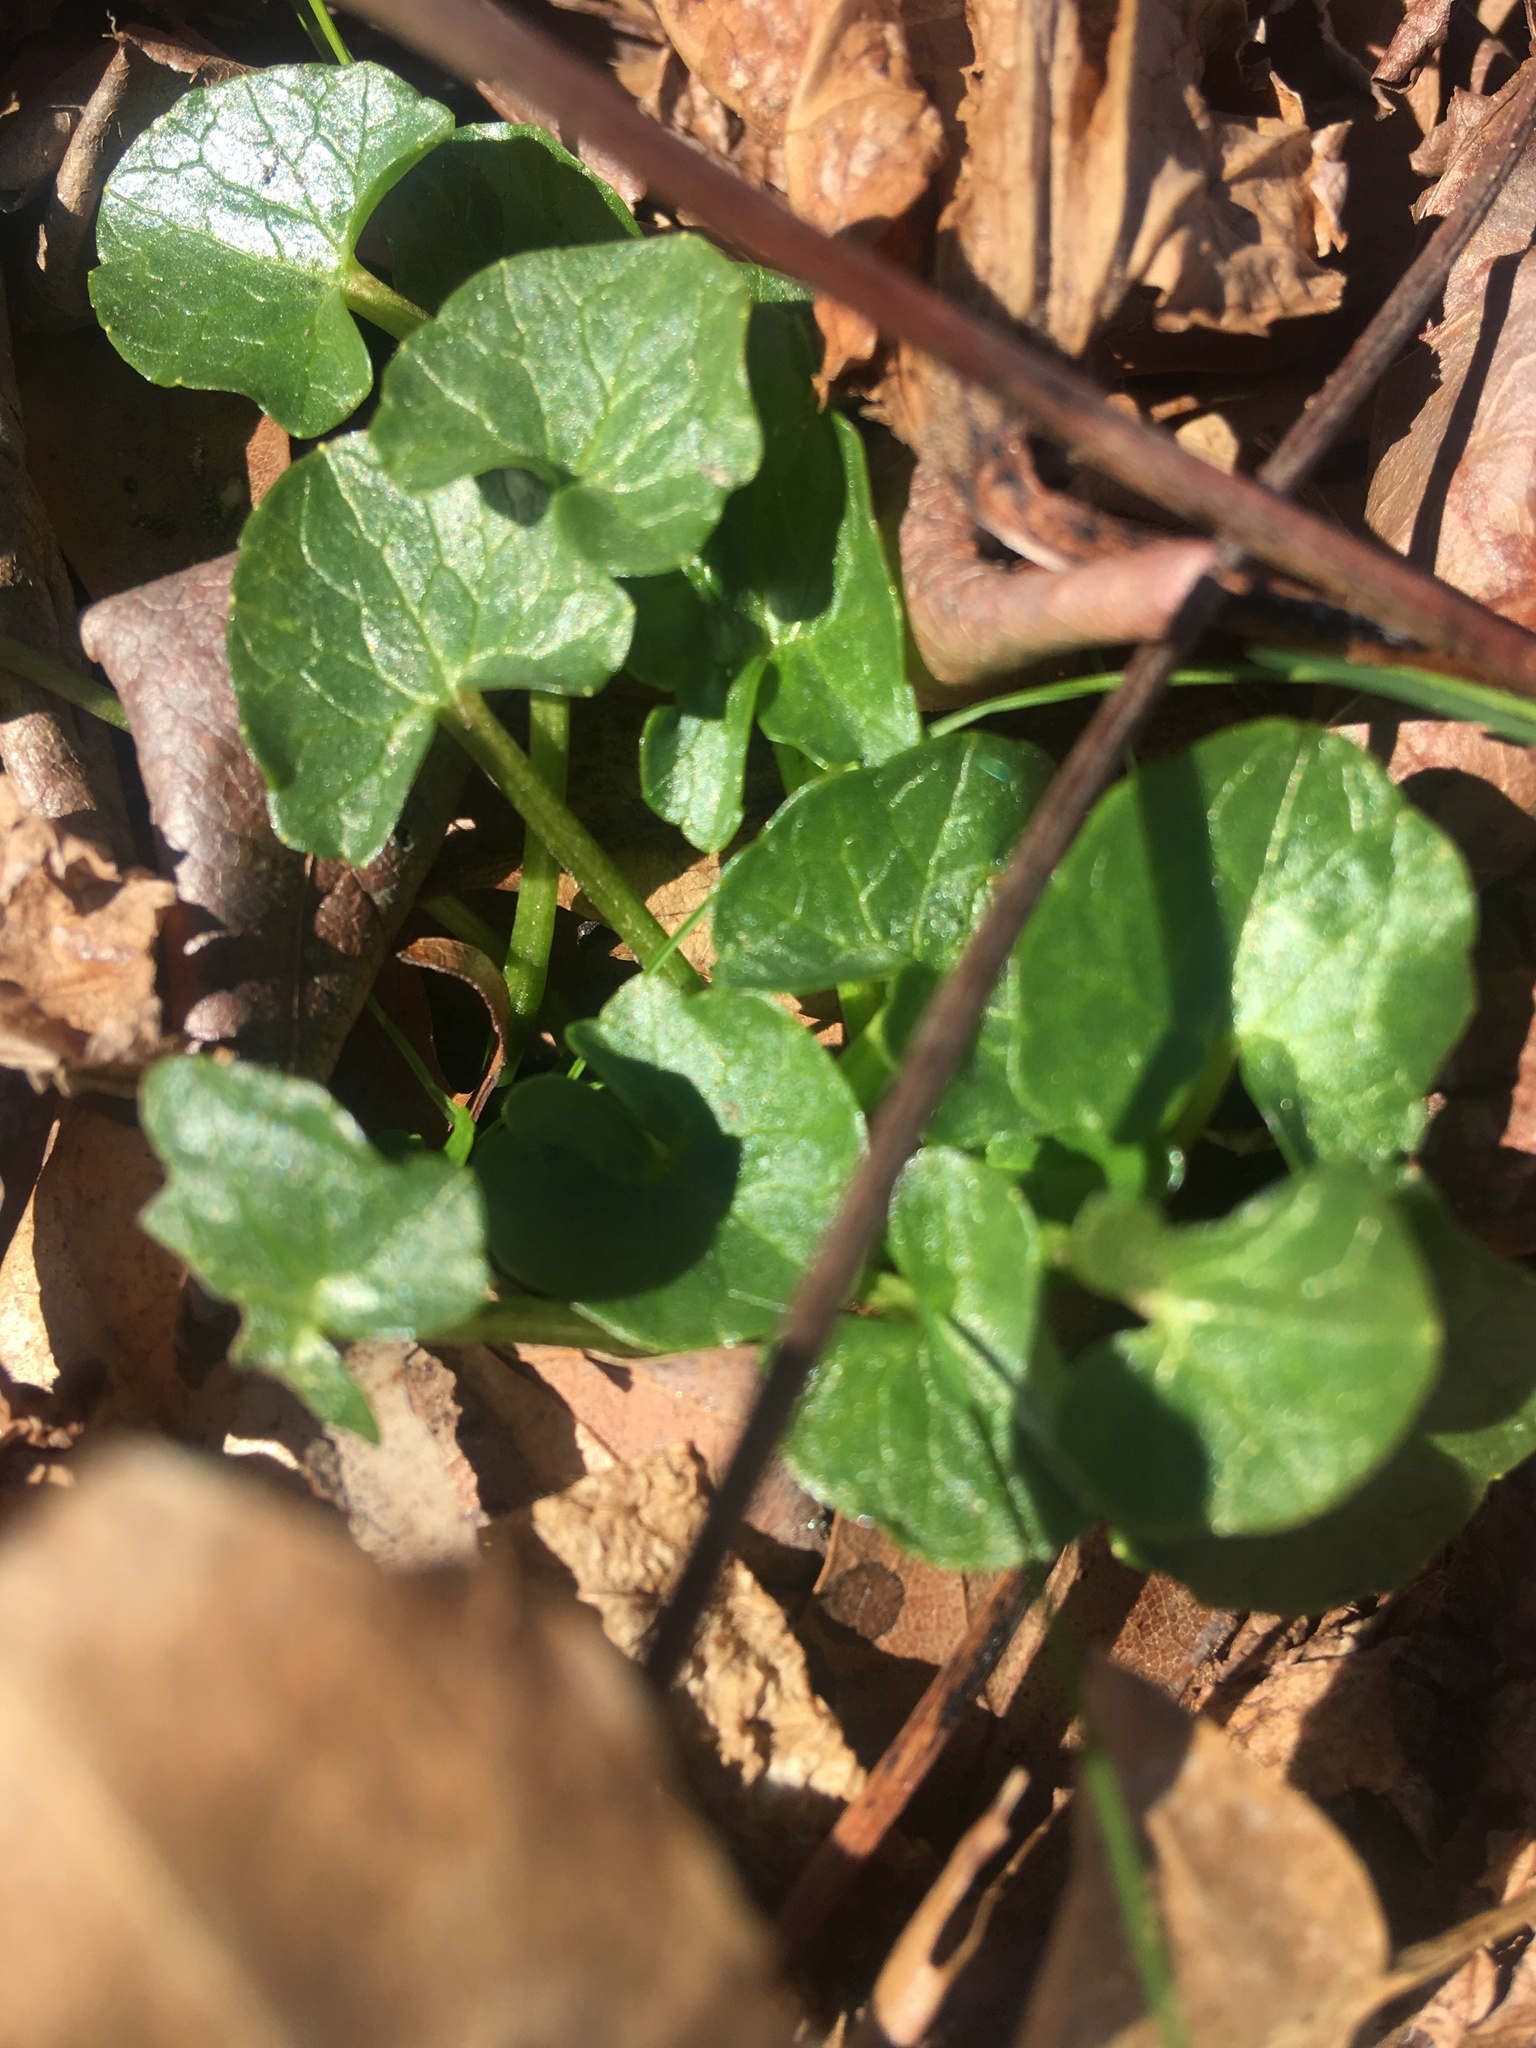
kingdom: Plantae
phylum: Tracheophyta
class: Magnoliopsida
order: Ranunculales
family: Ranunculaceae
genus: Ficaria
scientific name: Ficaria verna
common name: Lesser celandine
